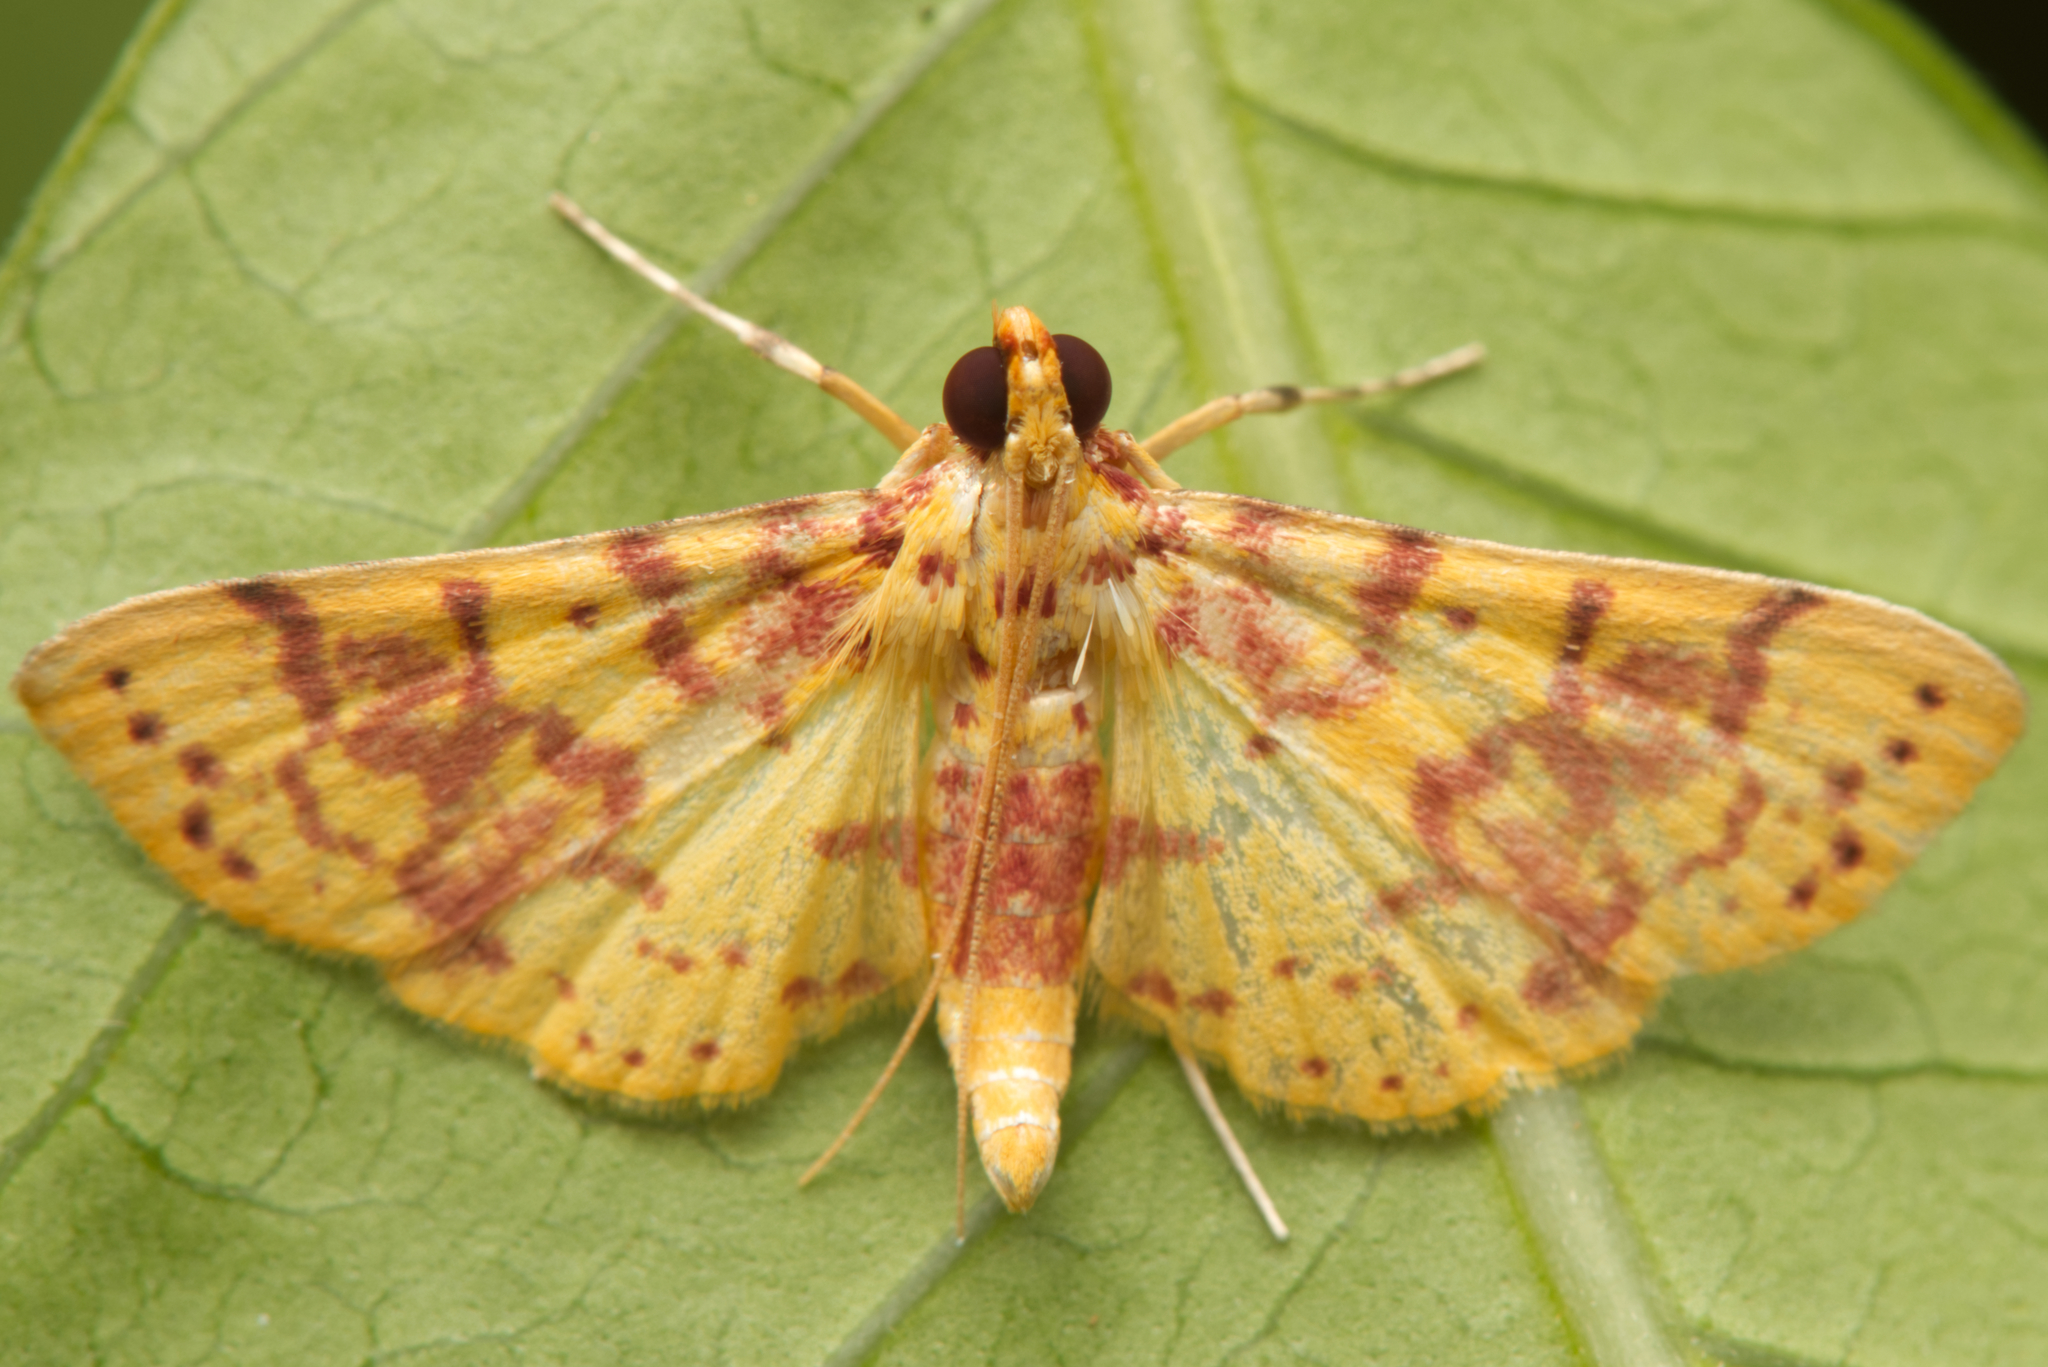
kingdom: Animalia
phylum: Arthropoda
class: Insecta
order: Lepidoptera
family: Crambidae
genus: Conogethes
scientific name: Conogethes haemactalis
